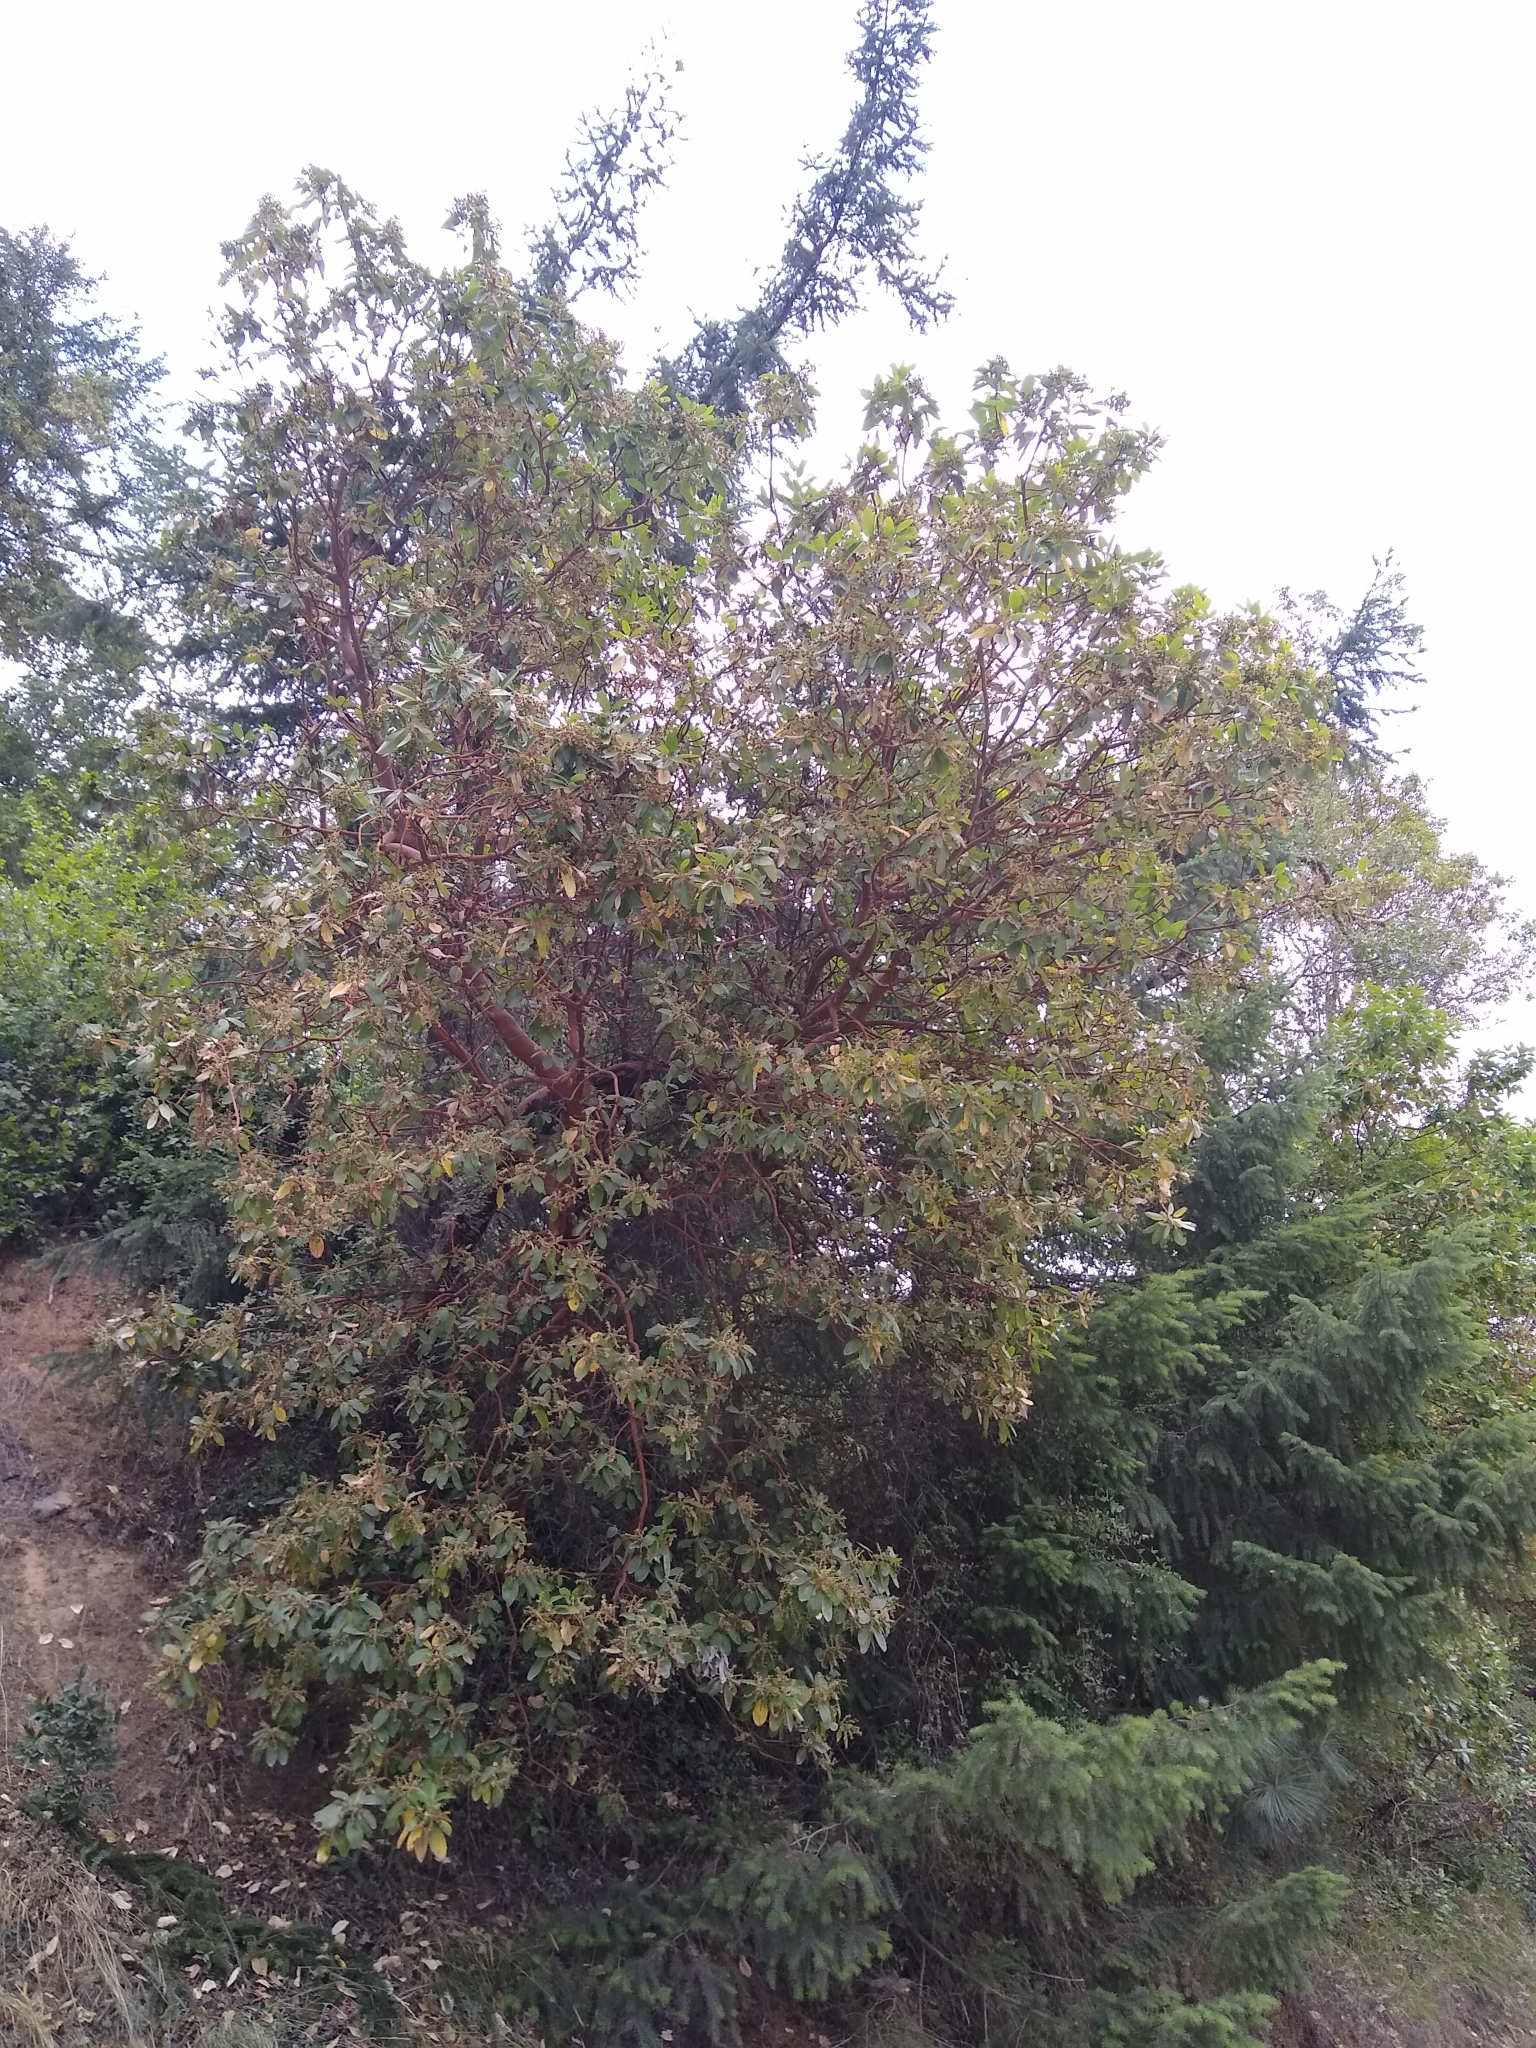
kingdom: Plantae
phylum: Tracheophyta
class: Magnoliopsida
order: Ericales
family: Ericaceae
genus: Arbutus
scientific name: Arbutus menziesii
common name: Pacific madrone
